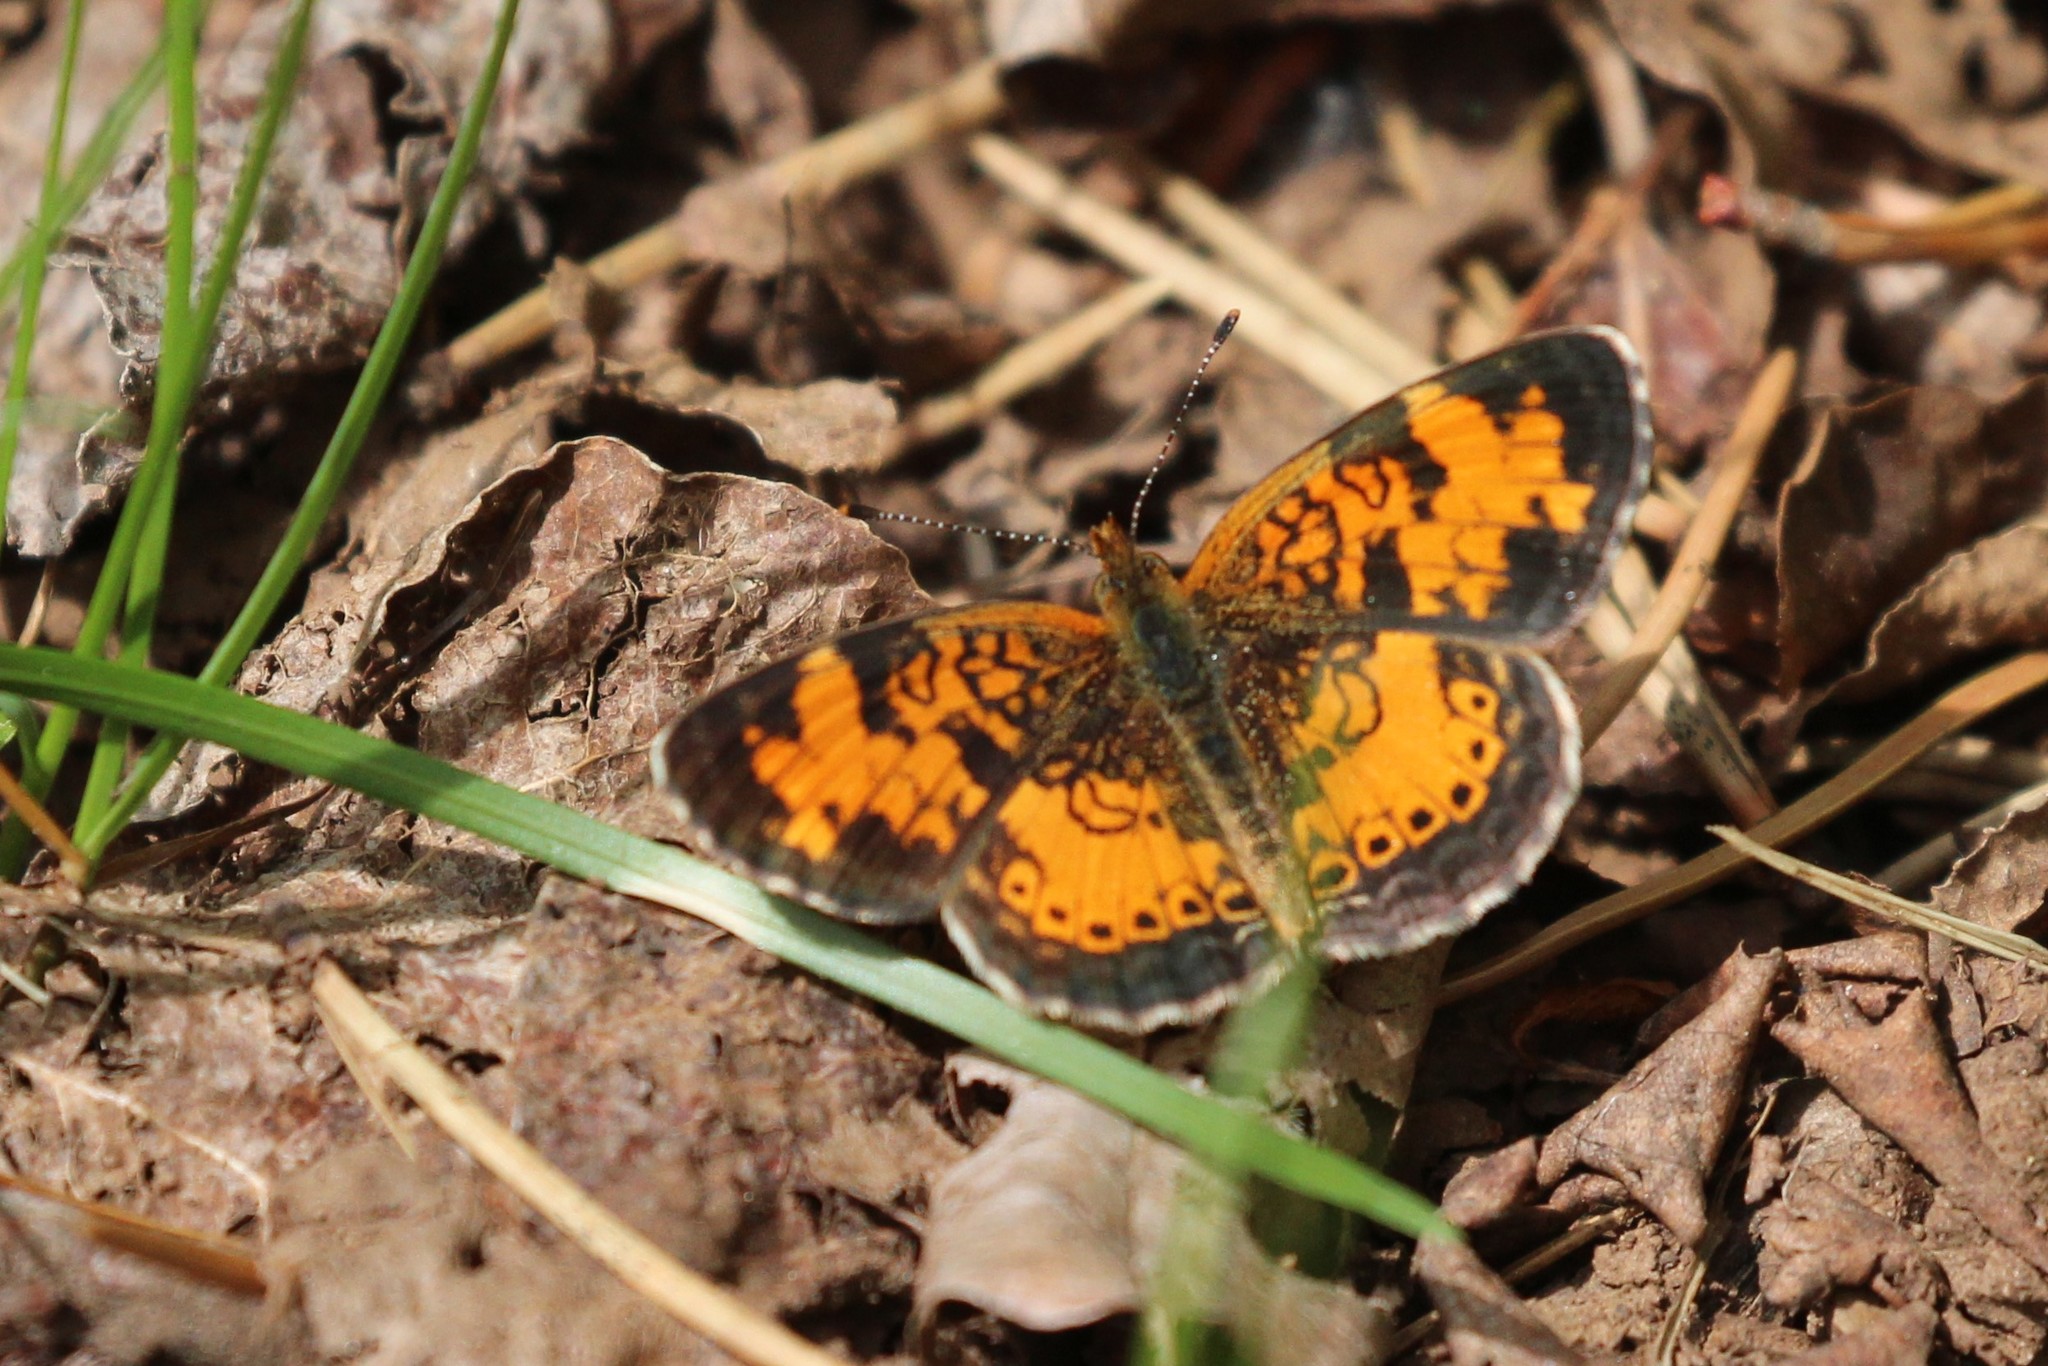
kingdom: Animalia
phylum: Arthropoda
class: Insecta
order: Lepidoptera
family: Nymphalidae
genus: Phyciodes
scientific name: Phyciodes tharos
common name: Pearl crescent
